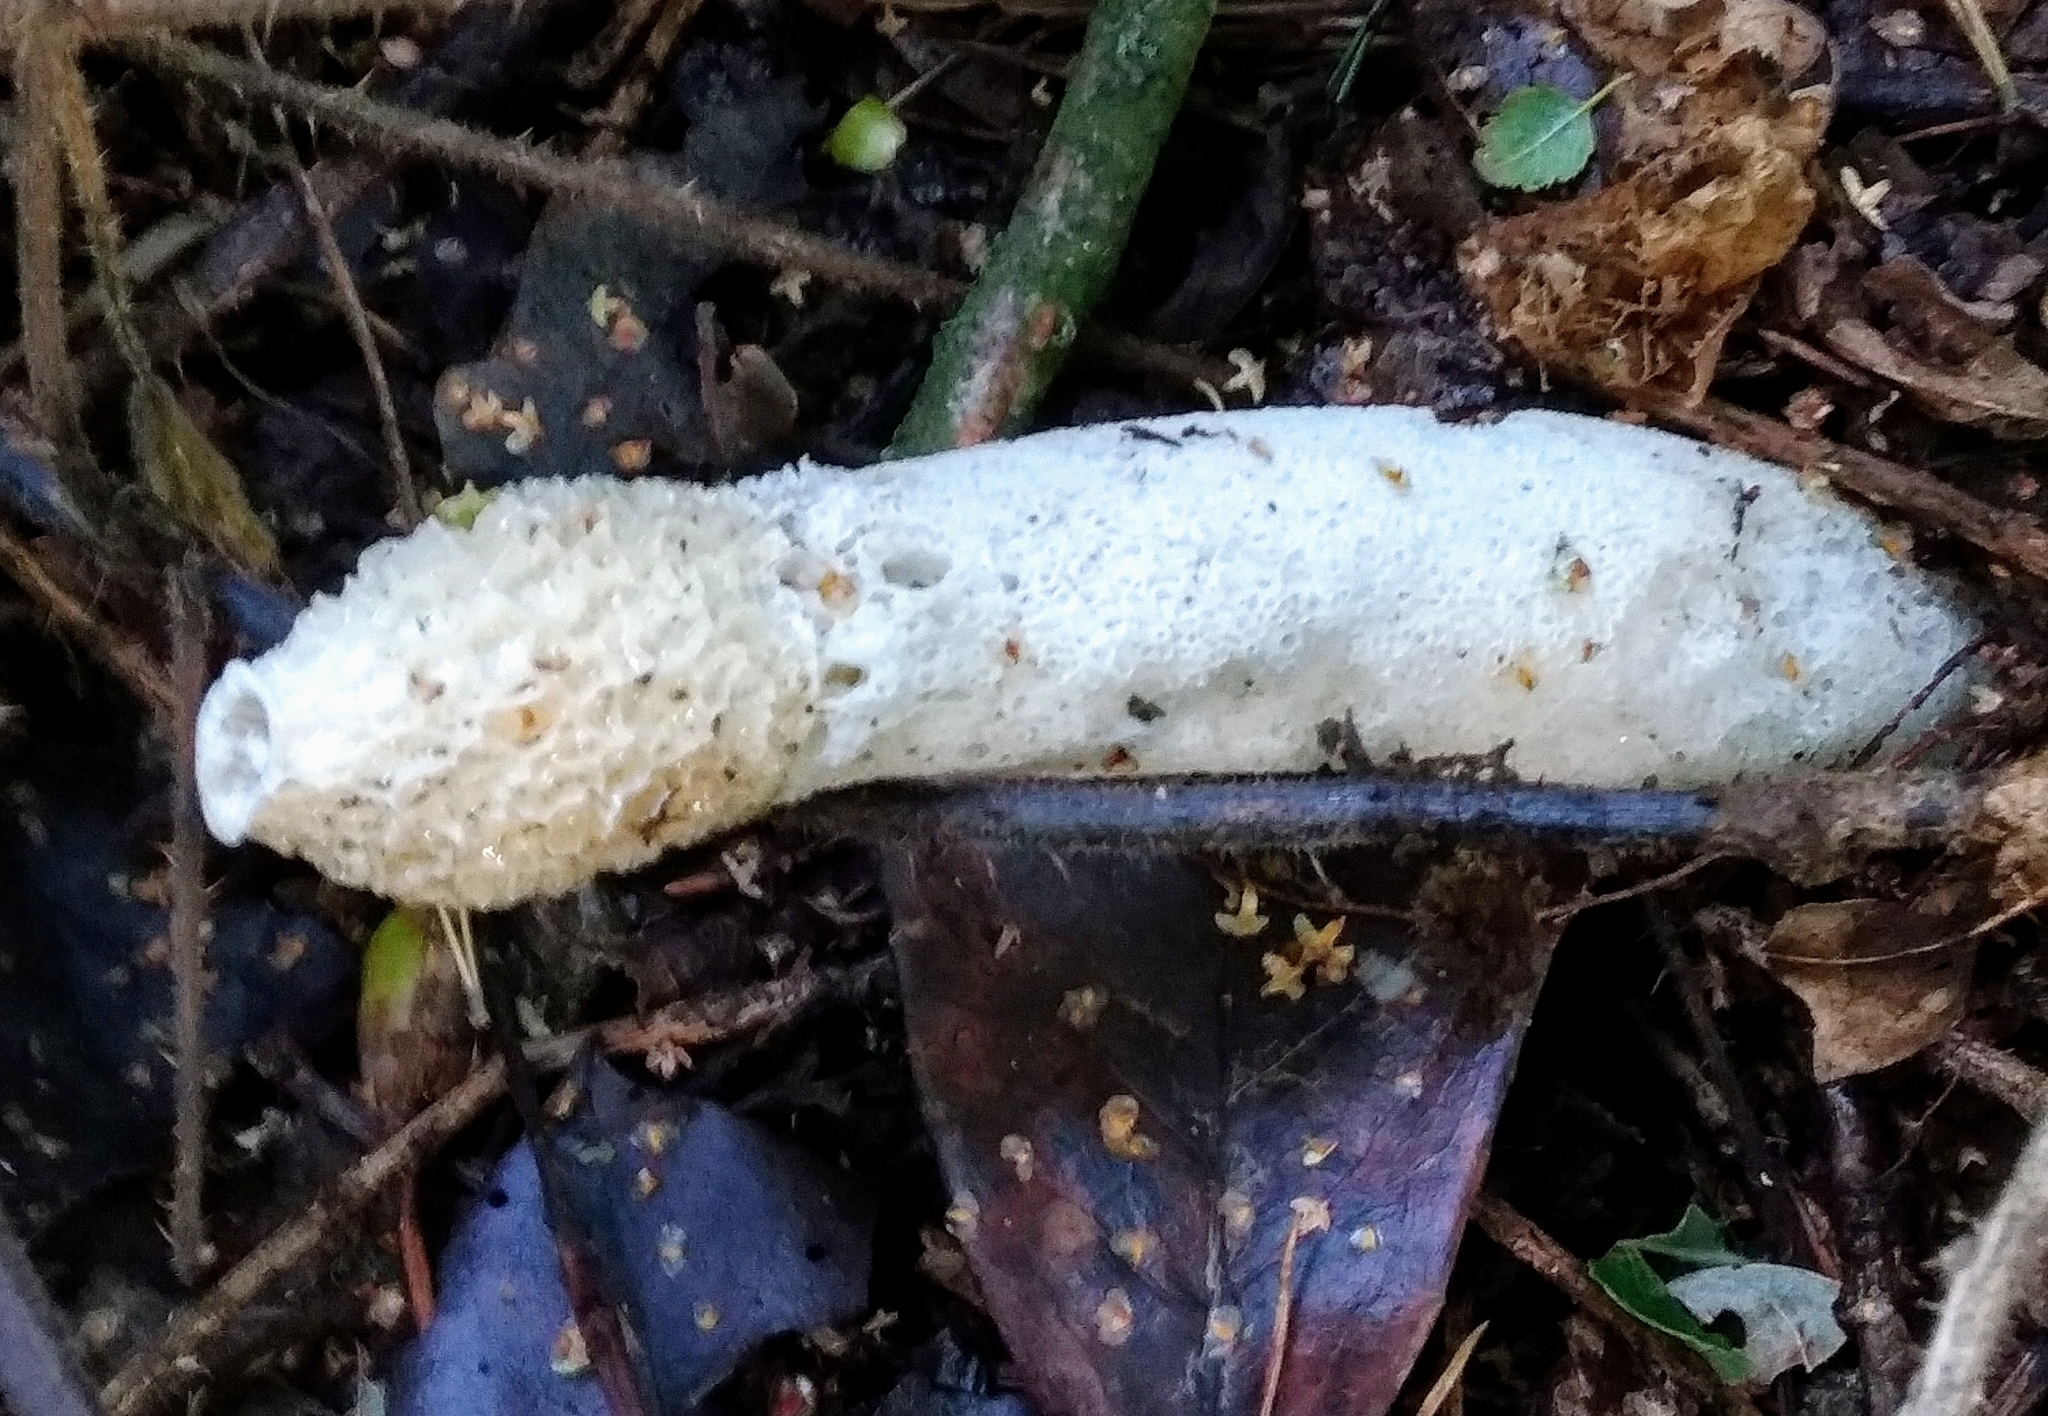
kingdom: Fungi
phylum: Basidiomycota
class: Agaricomycetes
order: Phallales
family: Phallaceae
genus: Phallus
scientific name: Phallus impudicus
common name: Common stinkhorn
